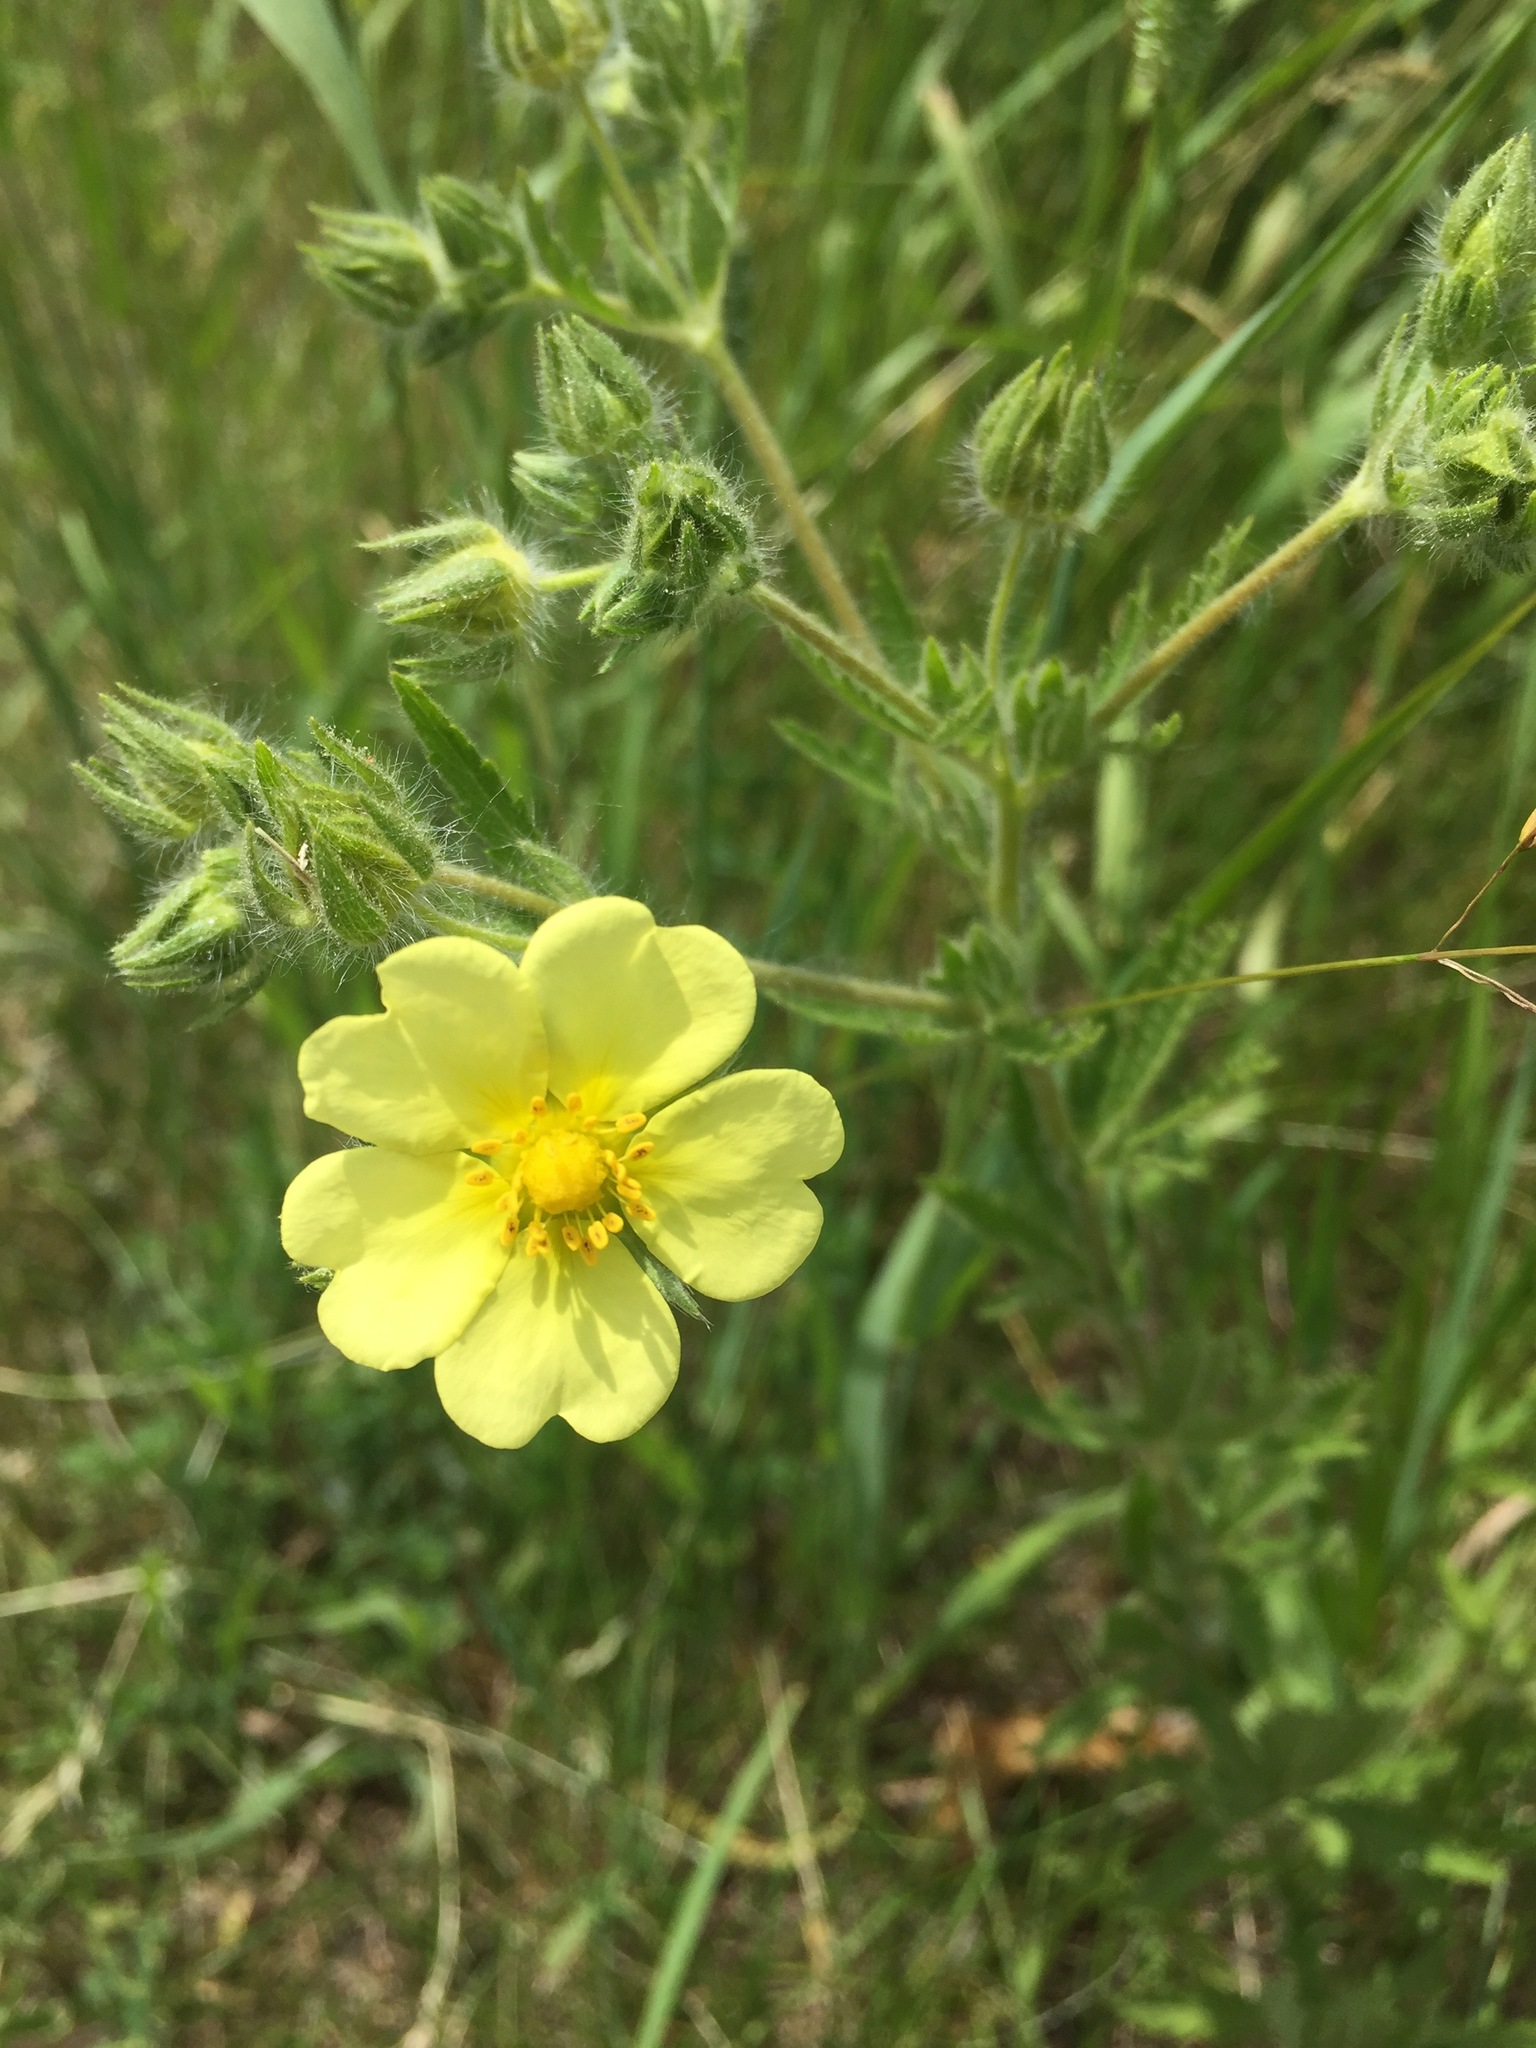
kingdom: Plantae
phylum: Tracheophyta
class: Magnoliopsida
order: Rosales
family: Rosaceae
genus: Potentilla
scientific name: Potentilla recta
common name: Sulphur cinquefoil
